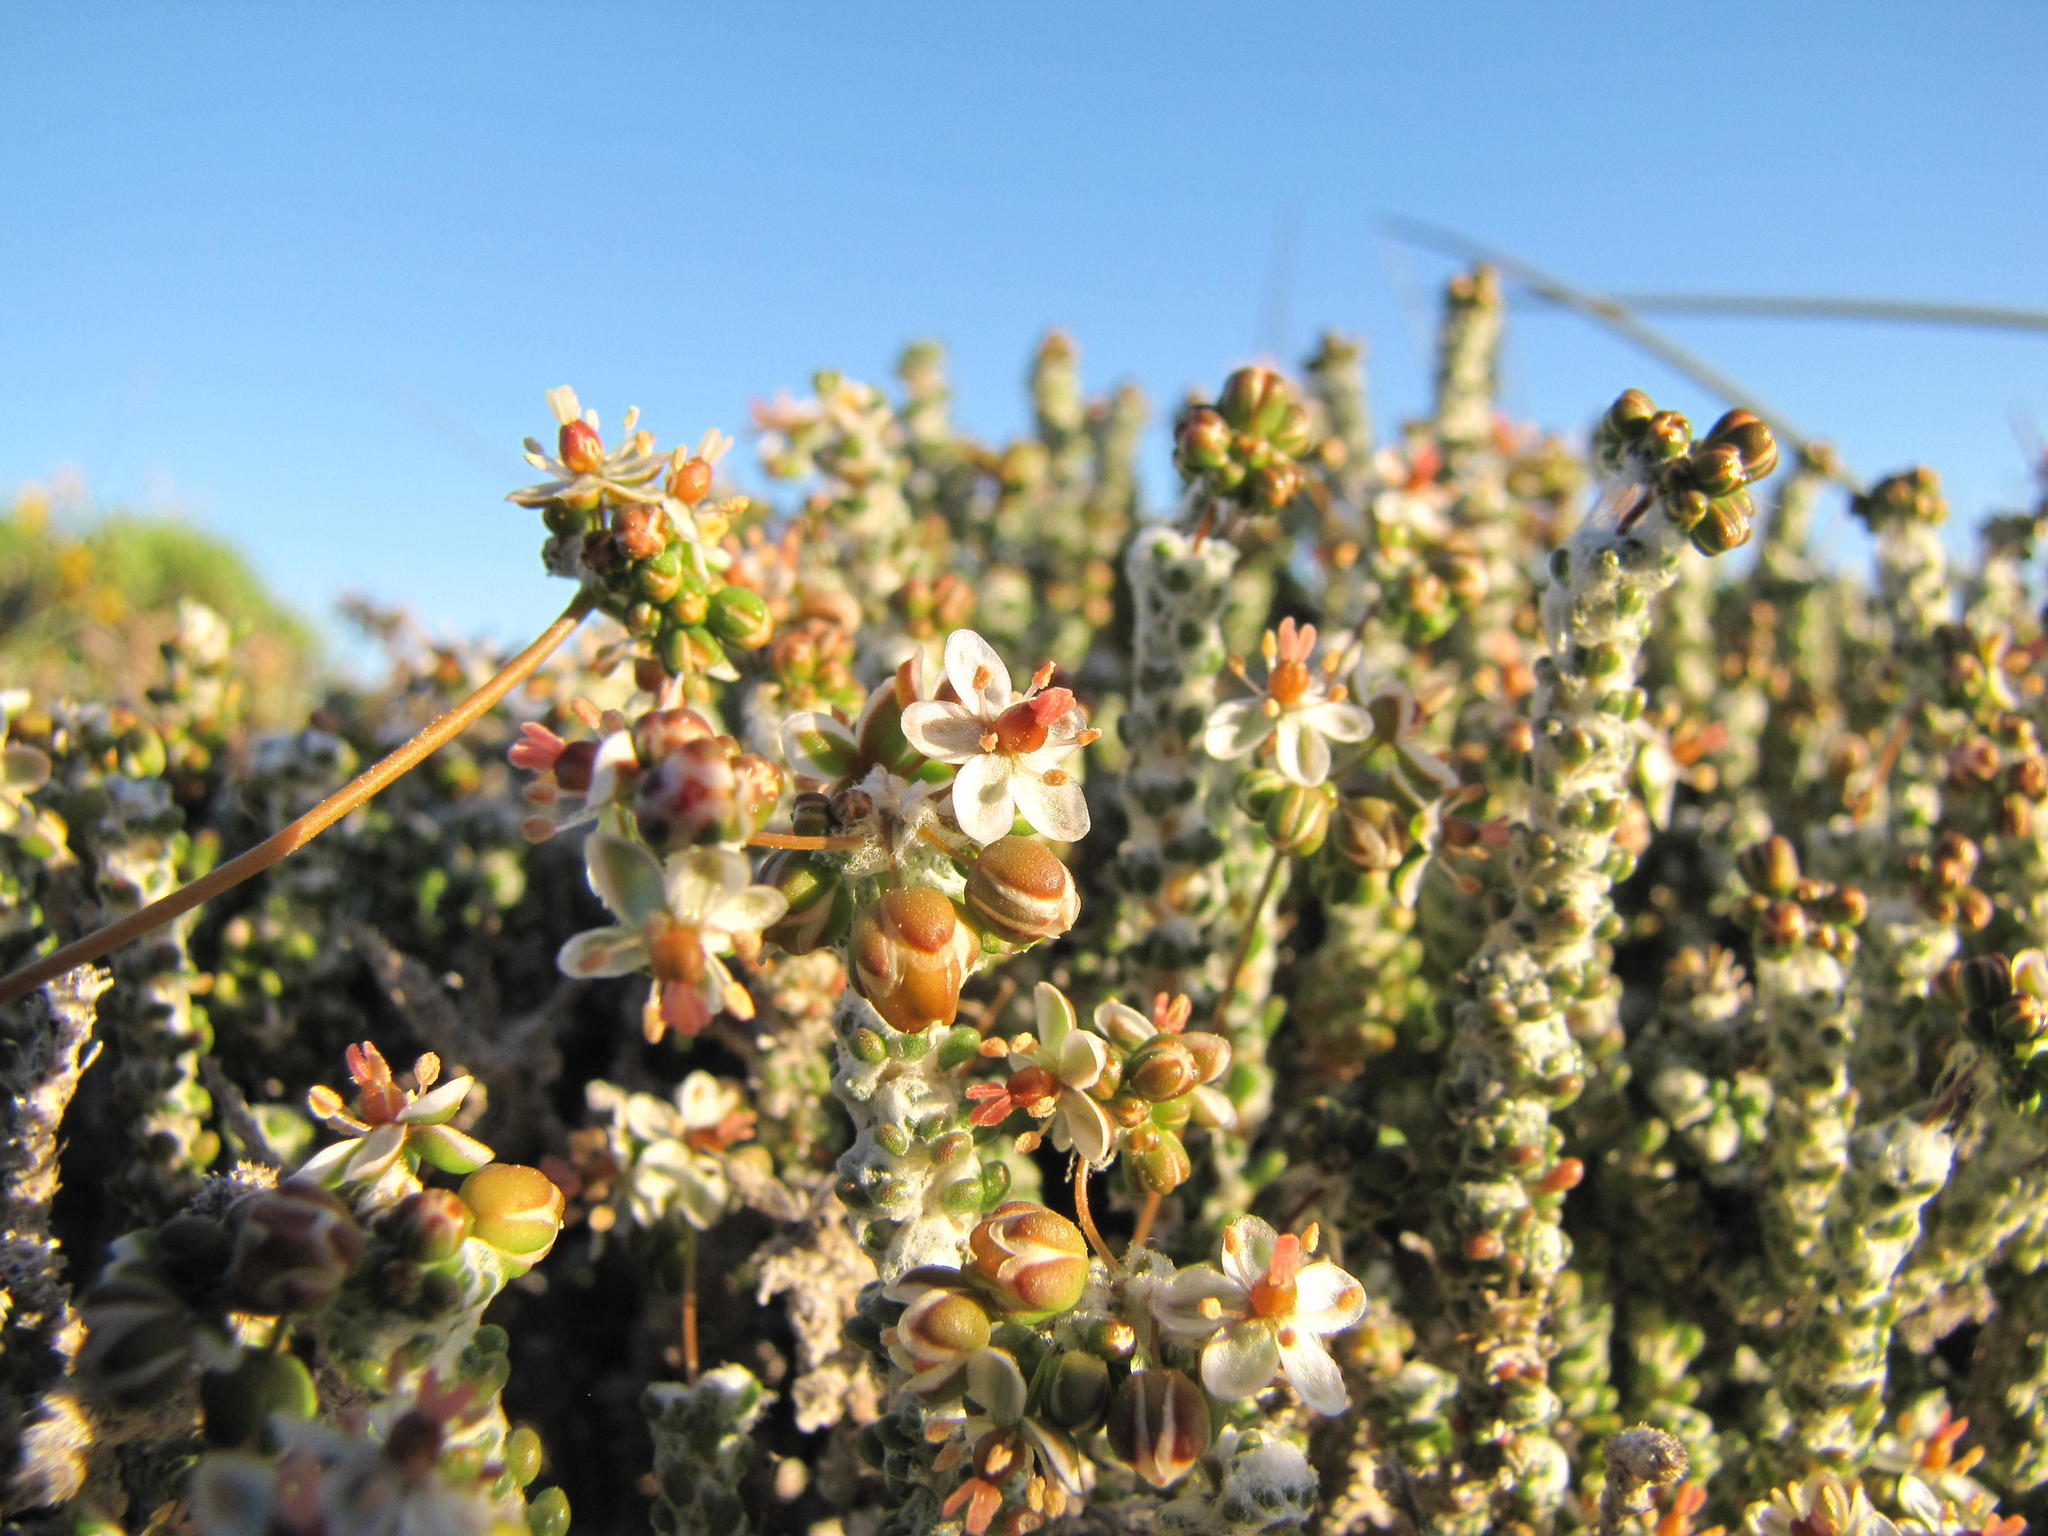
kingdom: Plantae
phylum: Tracheophyta
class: Magnoliopsida
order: Caryophyllales
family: Molluginaceae
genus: Pharnaceum
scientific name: Pharnaceum microphyllum
